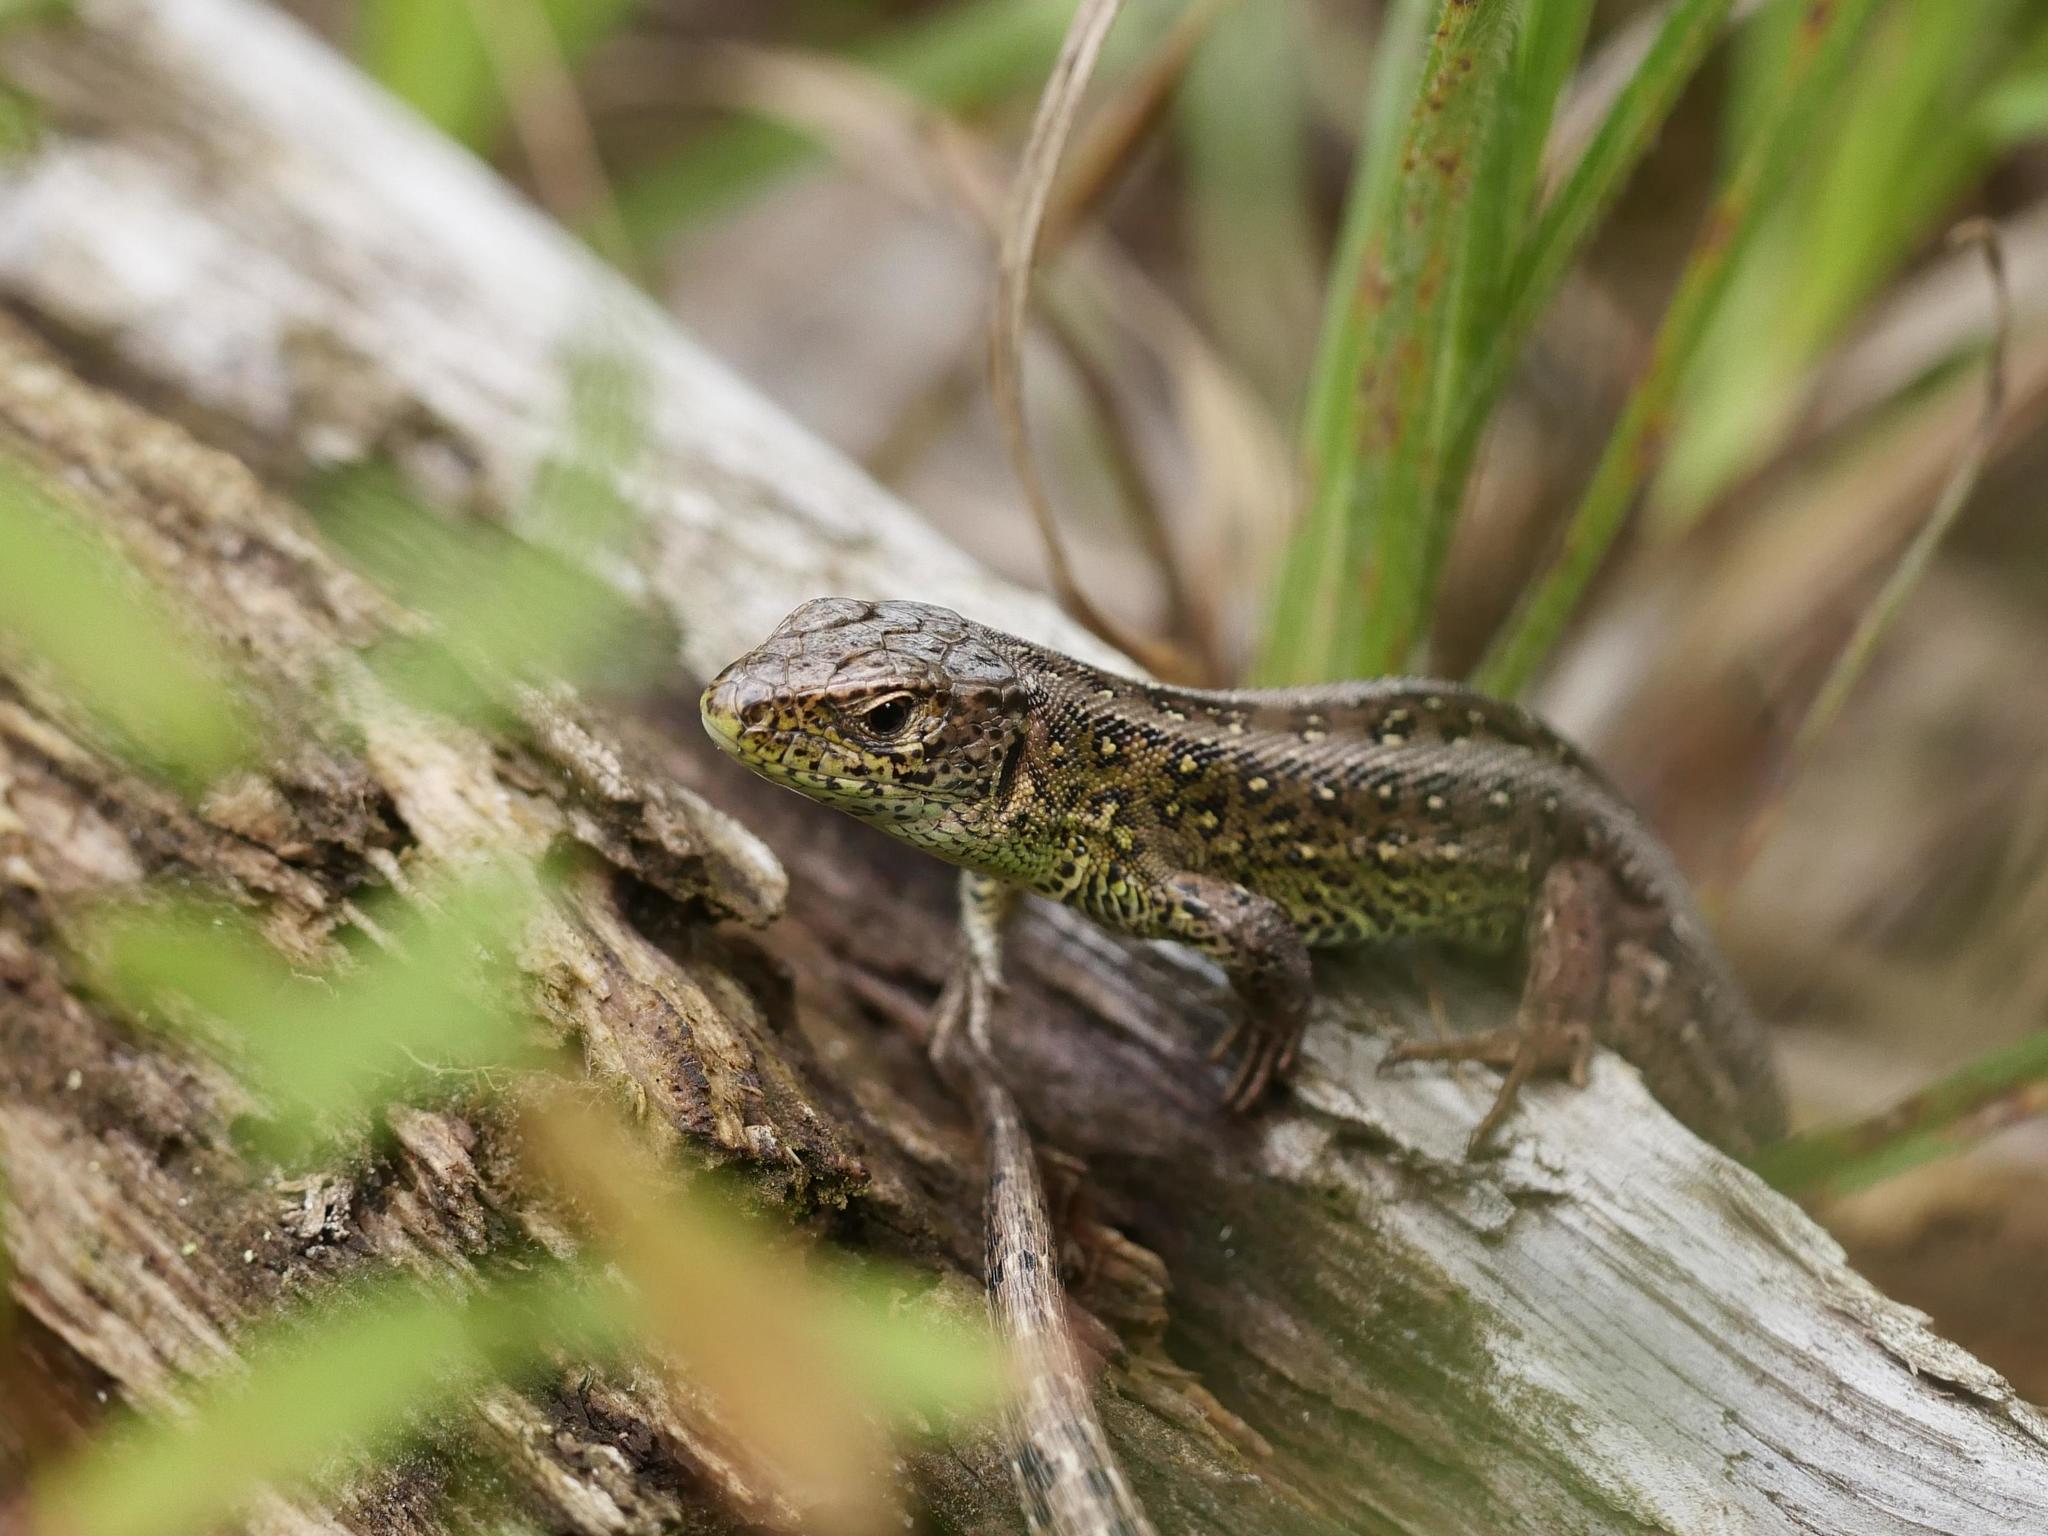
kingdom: Animalia
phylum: Chordata
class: Squamata
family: Lacertidae
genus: Lacerta
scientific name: Lacerta agilis
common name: Sand lizard
